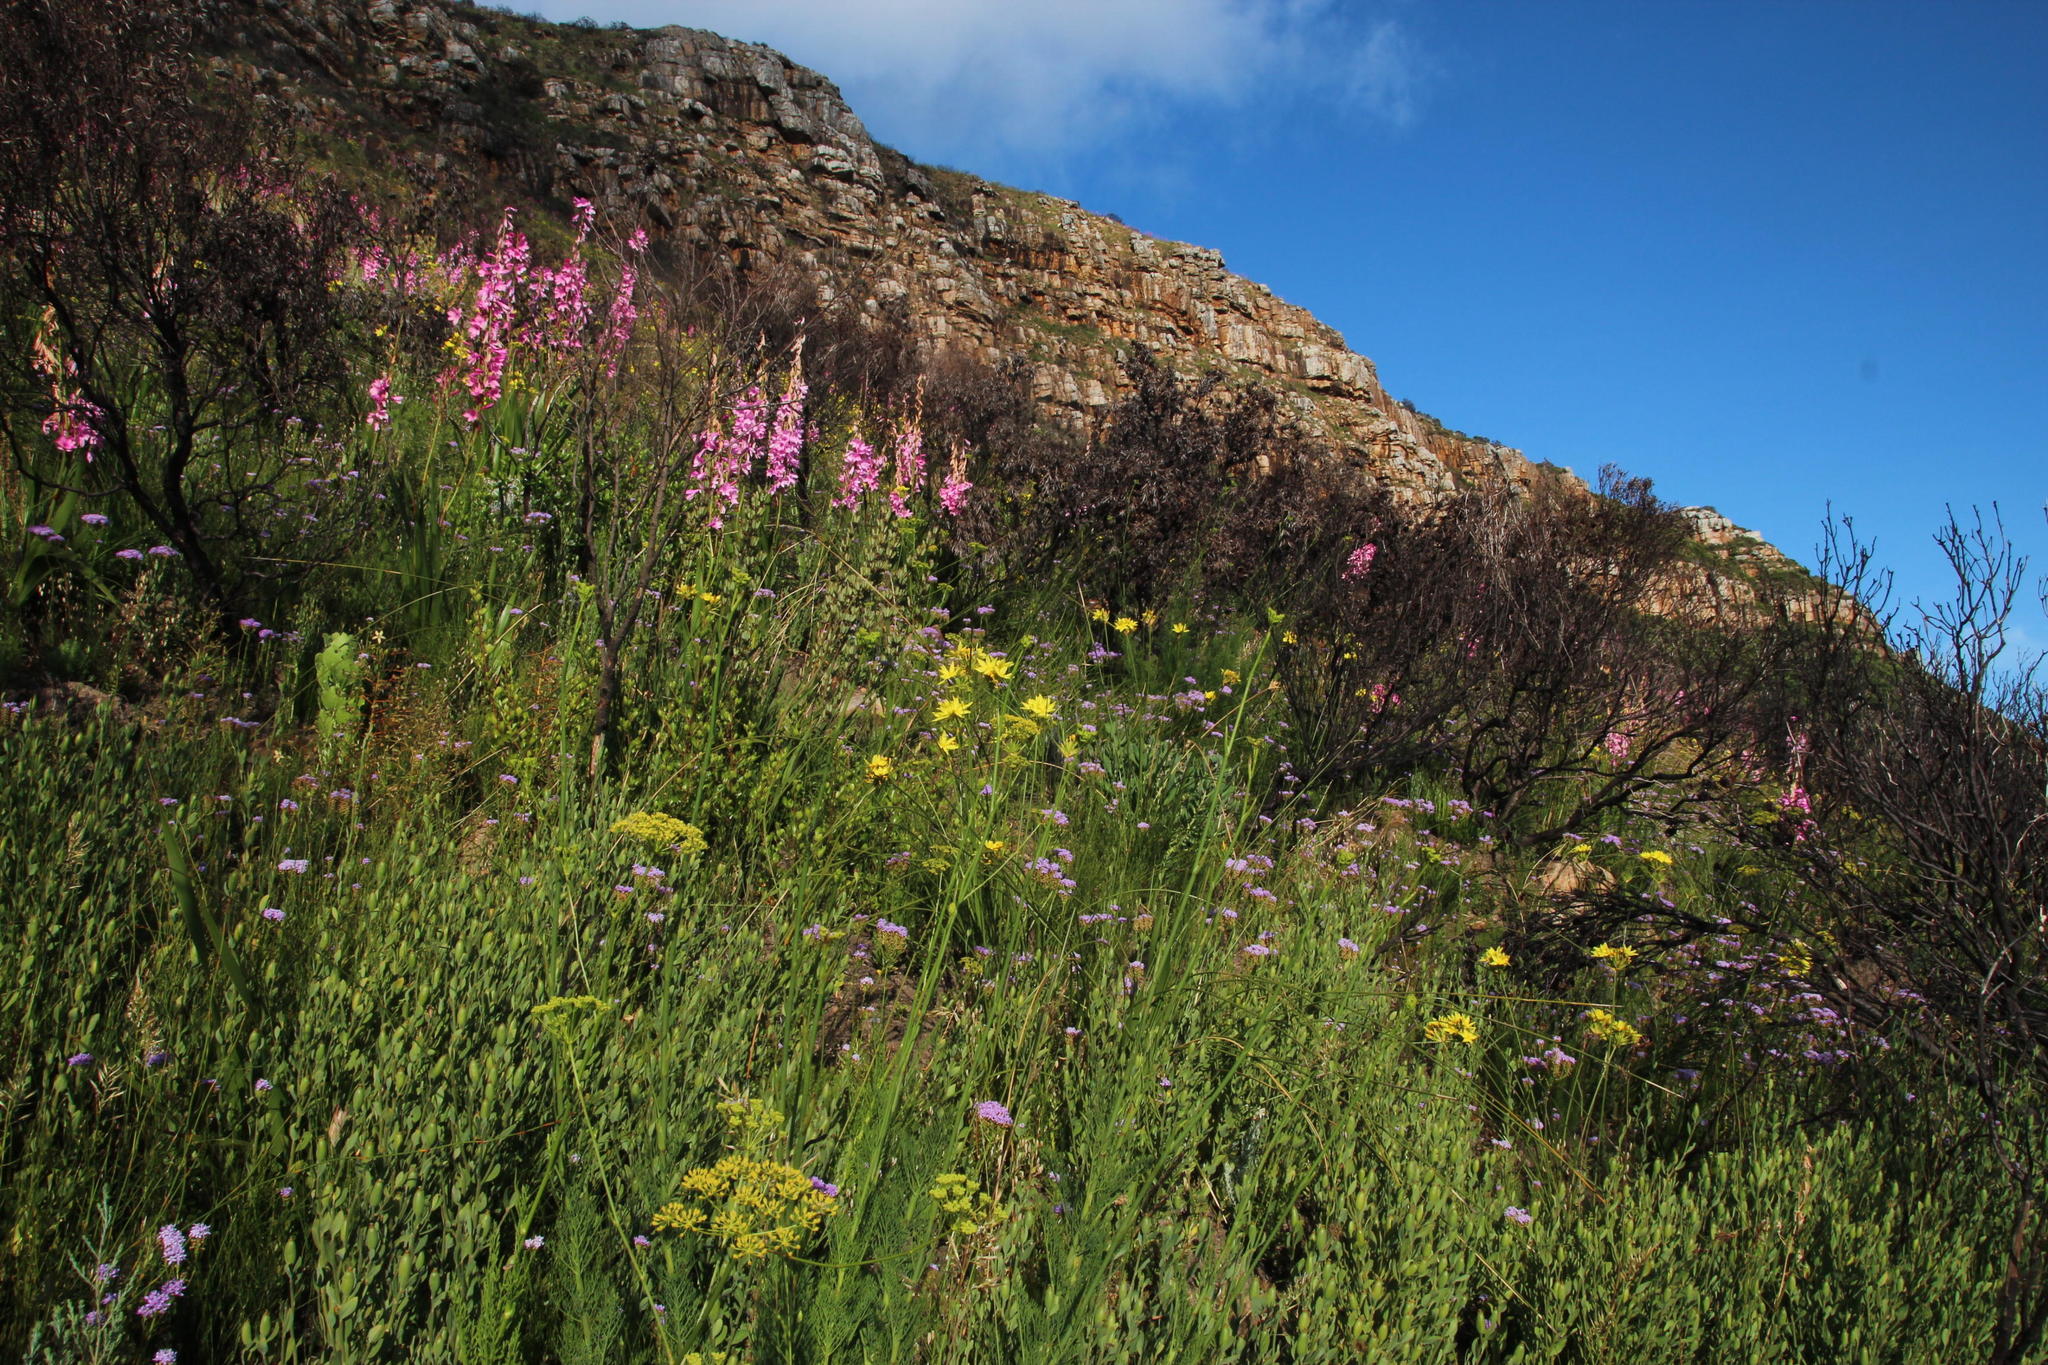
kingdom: Plantae
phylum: Tracheophyta
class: Liliopsida
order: Asparagales
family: Iridaceae
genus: Bobartia
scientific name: Bobartia indica
